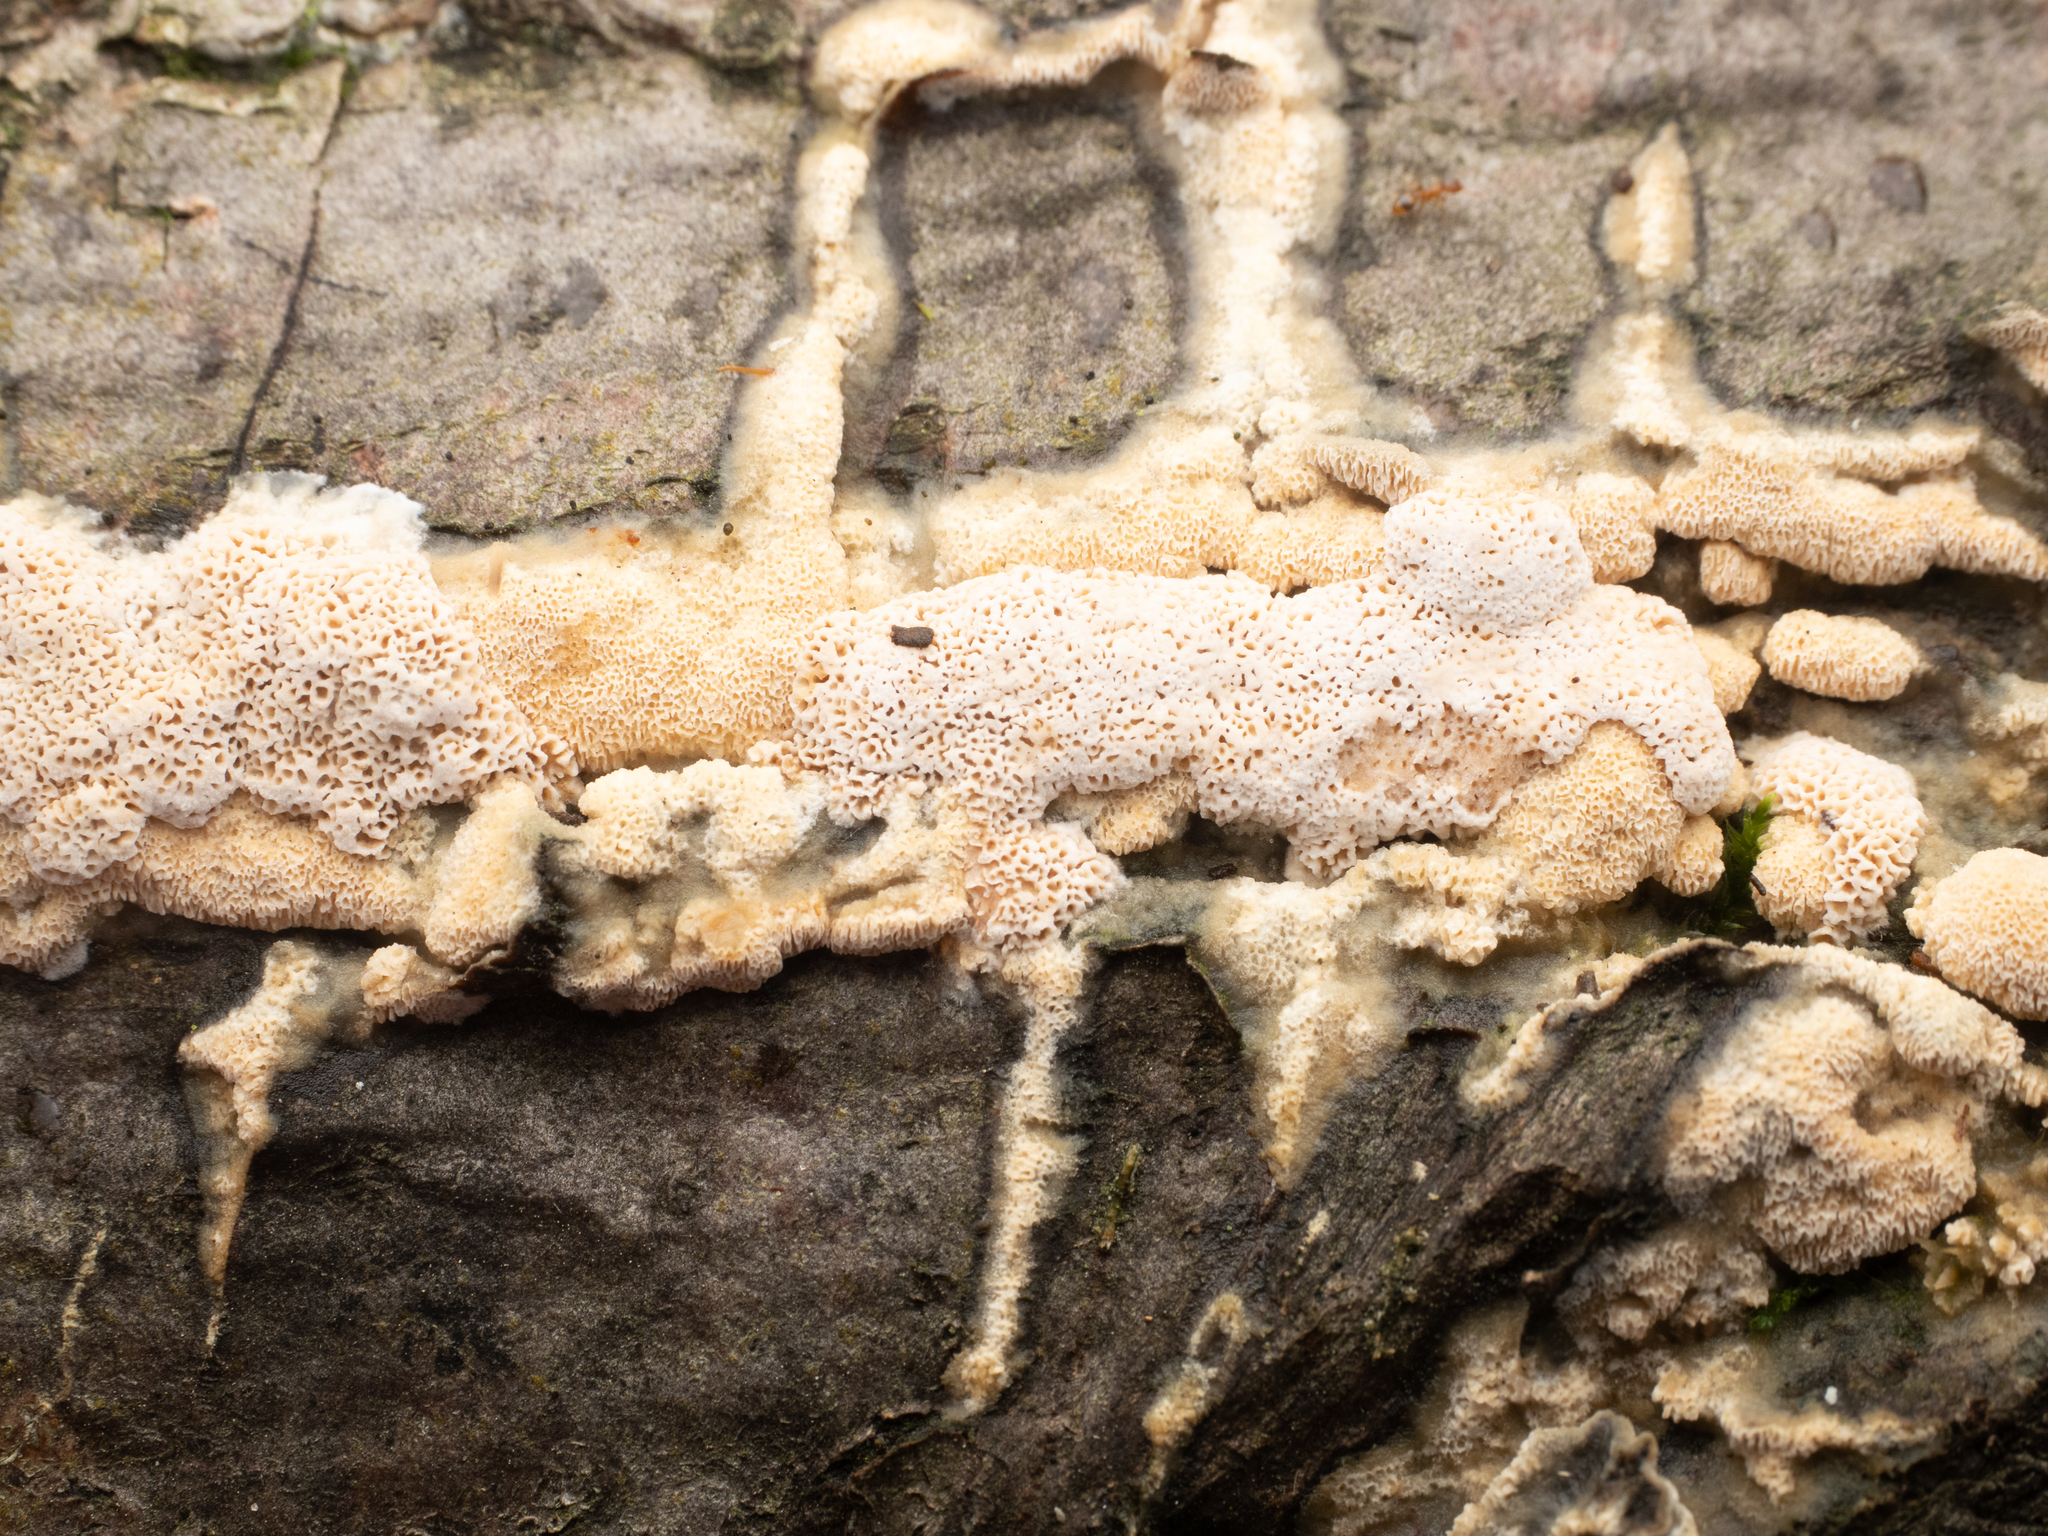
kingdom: Fungi
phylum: Basidiomycota
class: Agaricomycetes
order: Hymenochaetales
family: Schizoporaceae
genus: Schizopora
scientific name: Schizopora paradoxa
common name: Split porecrust
